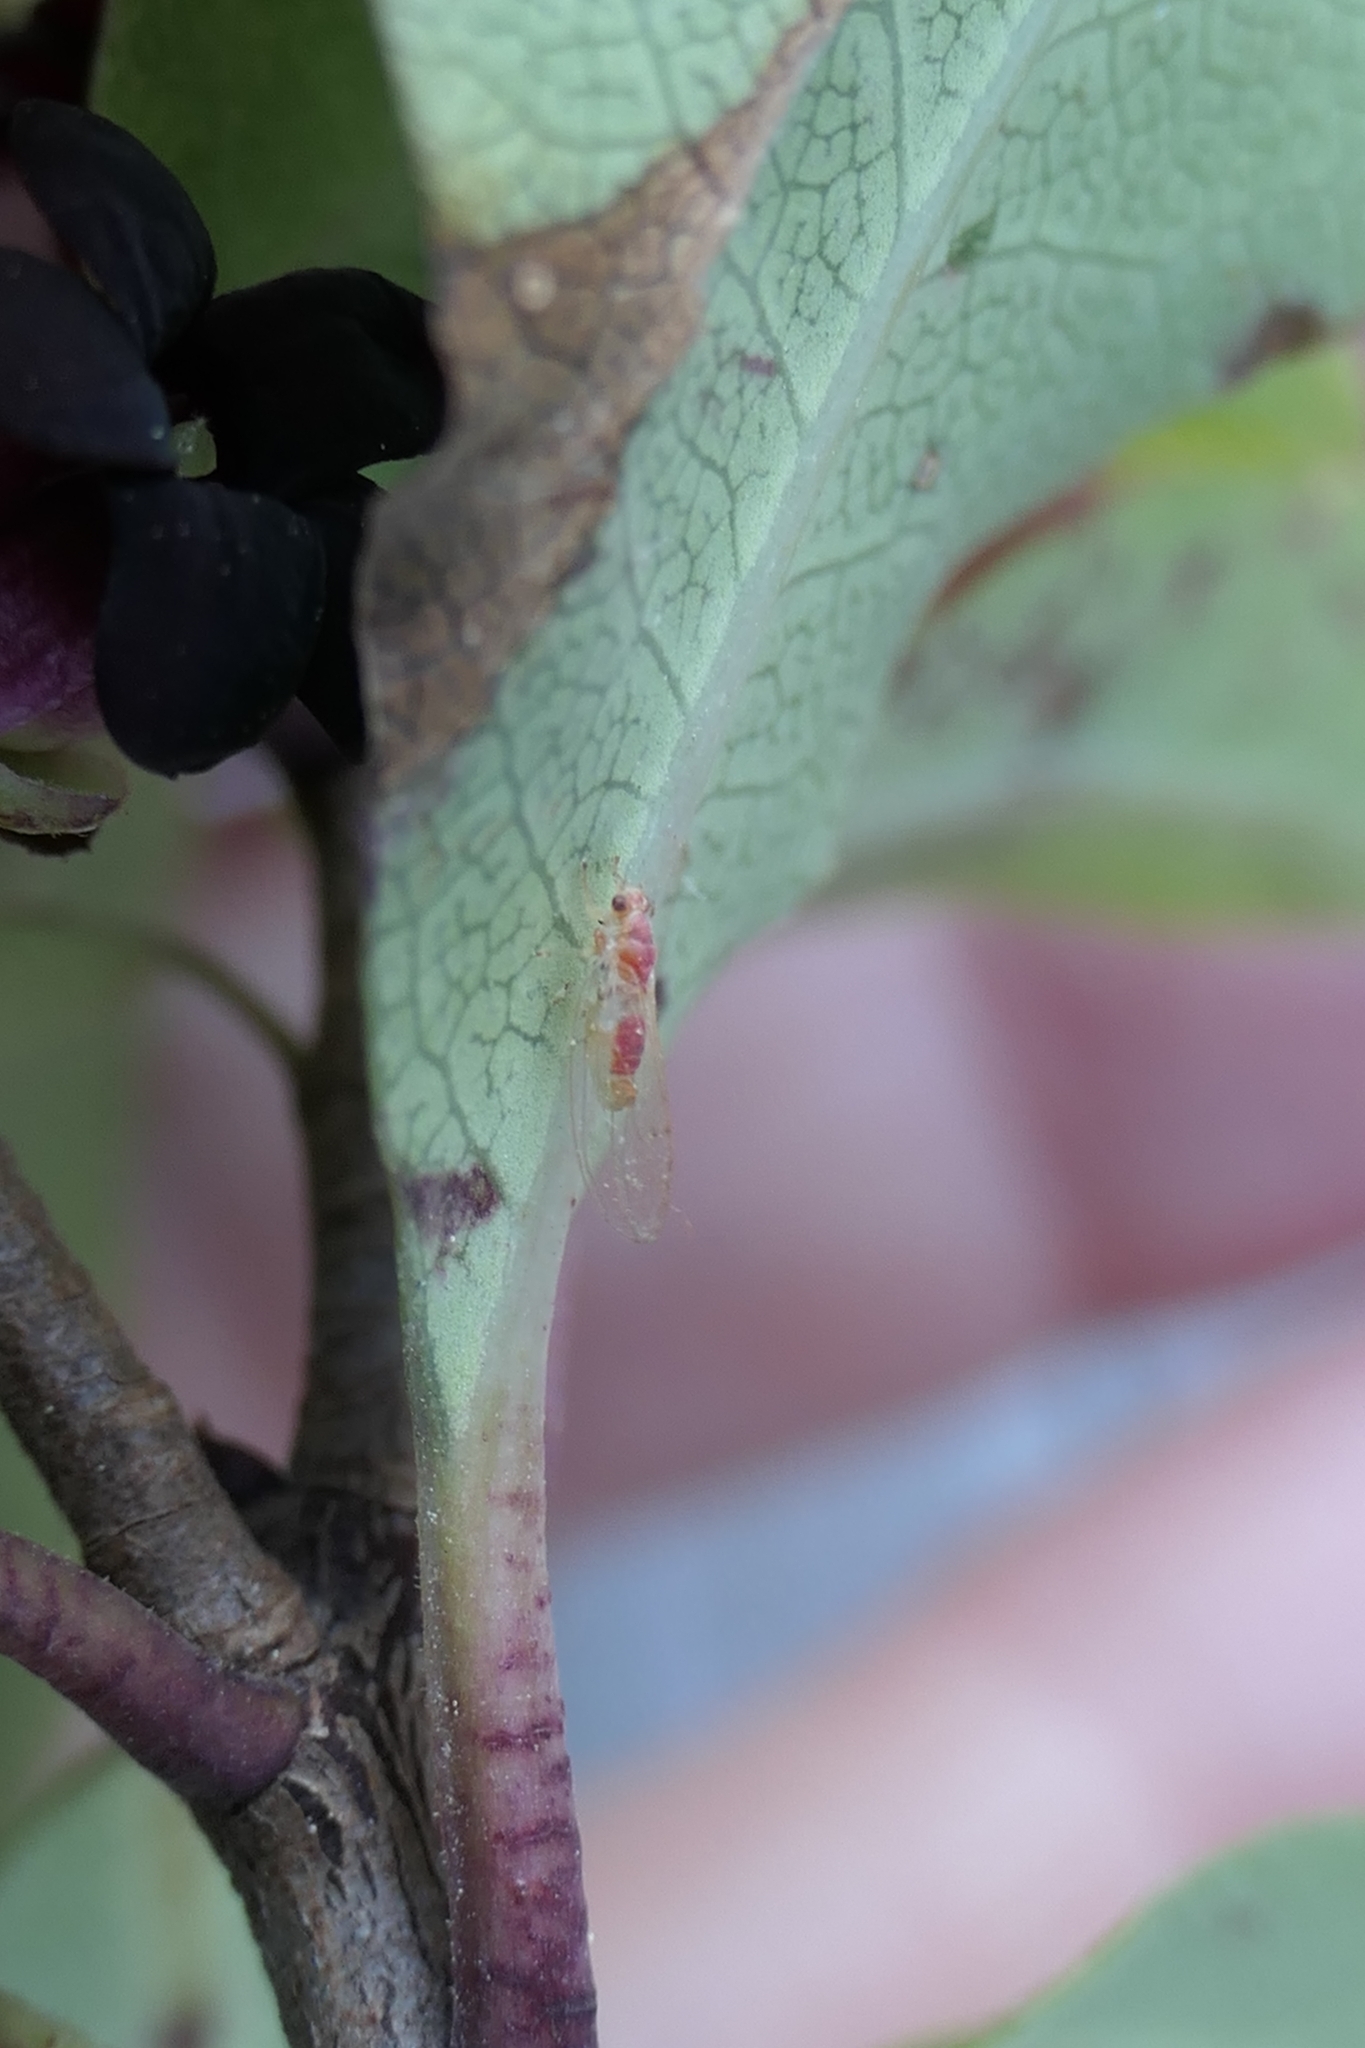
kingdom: Animalia
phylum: Arthropoda
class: Insecta
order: Hemiptera
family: Triozidae
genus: Powellia
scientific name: Powellia vitreoradiata
